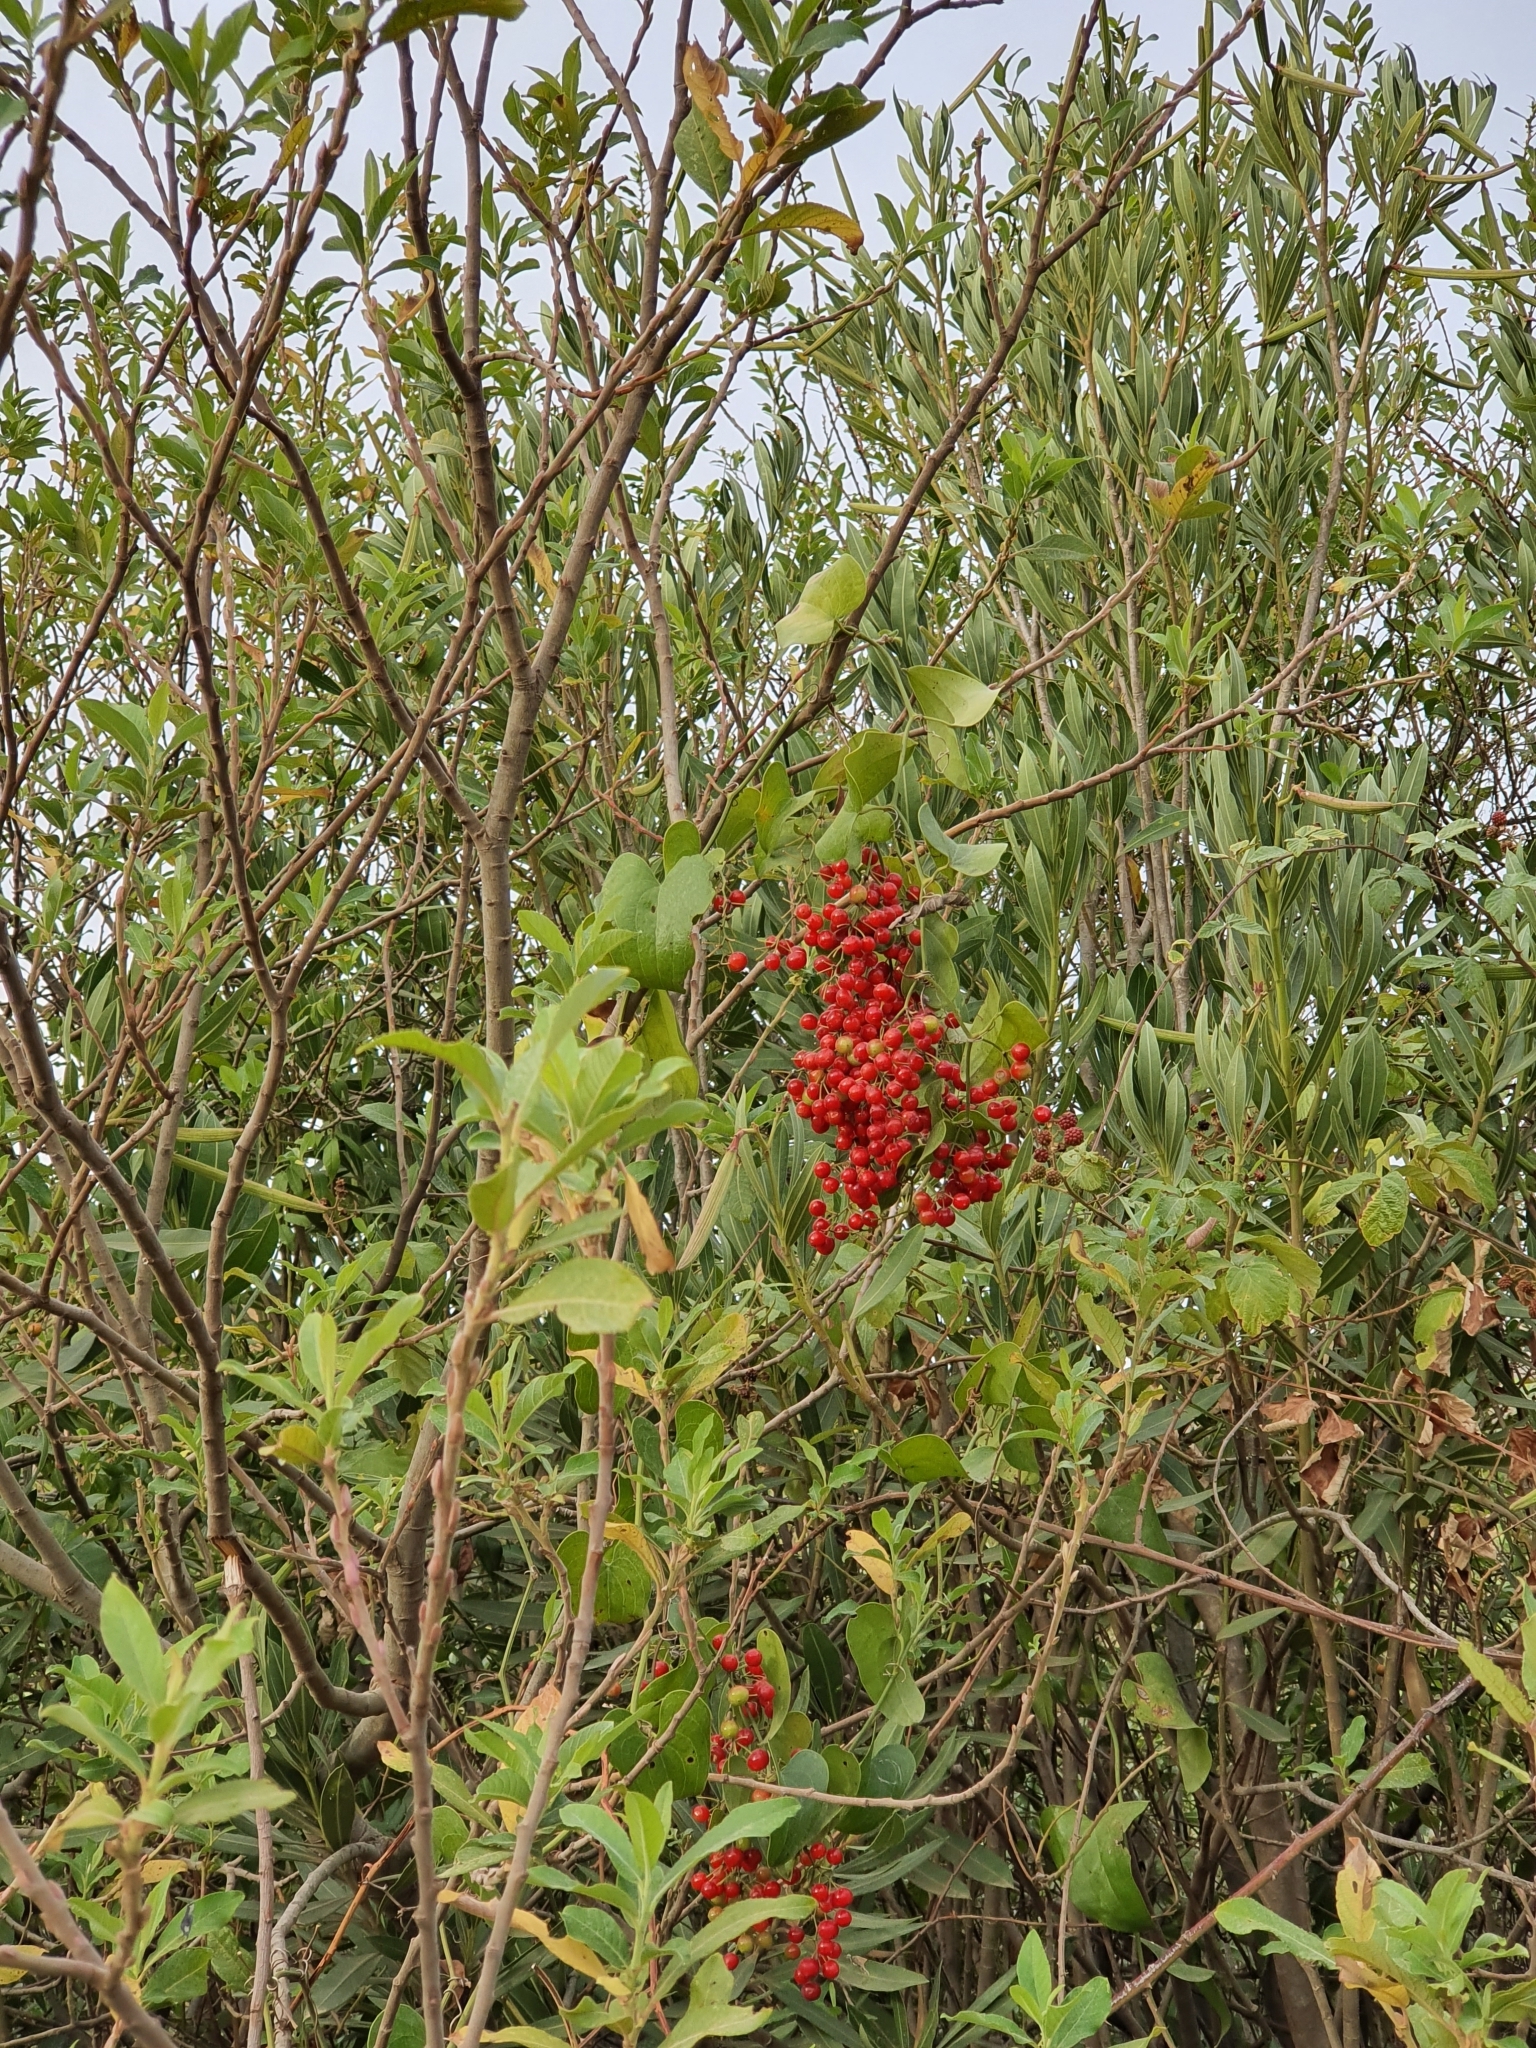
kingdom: Plantae
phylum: Tracheophyta
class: Liliopsida
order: Liliales
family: Smilacaceae
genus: Smilax
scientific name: Smilax aspera
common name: Common smilax
